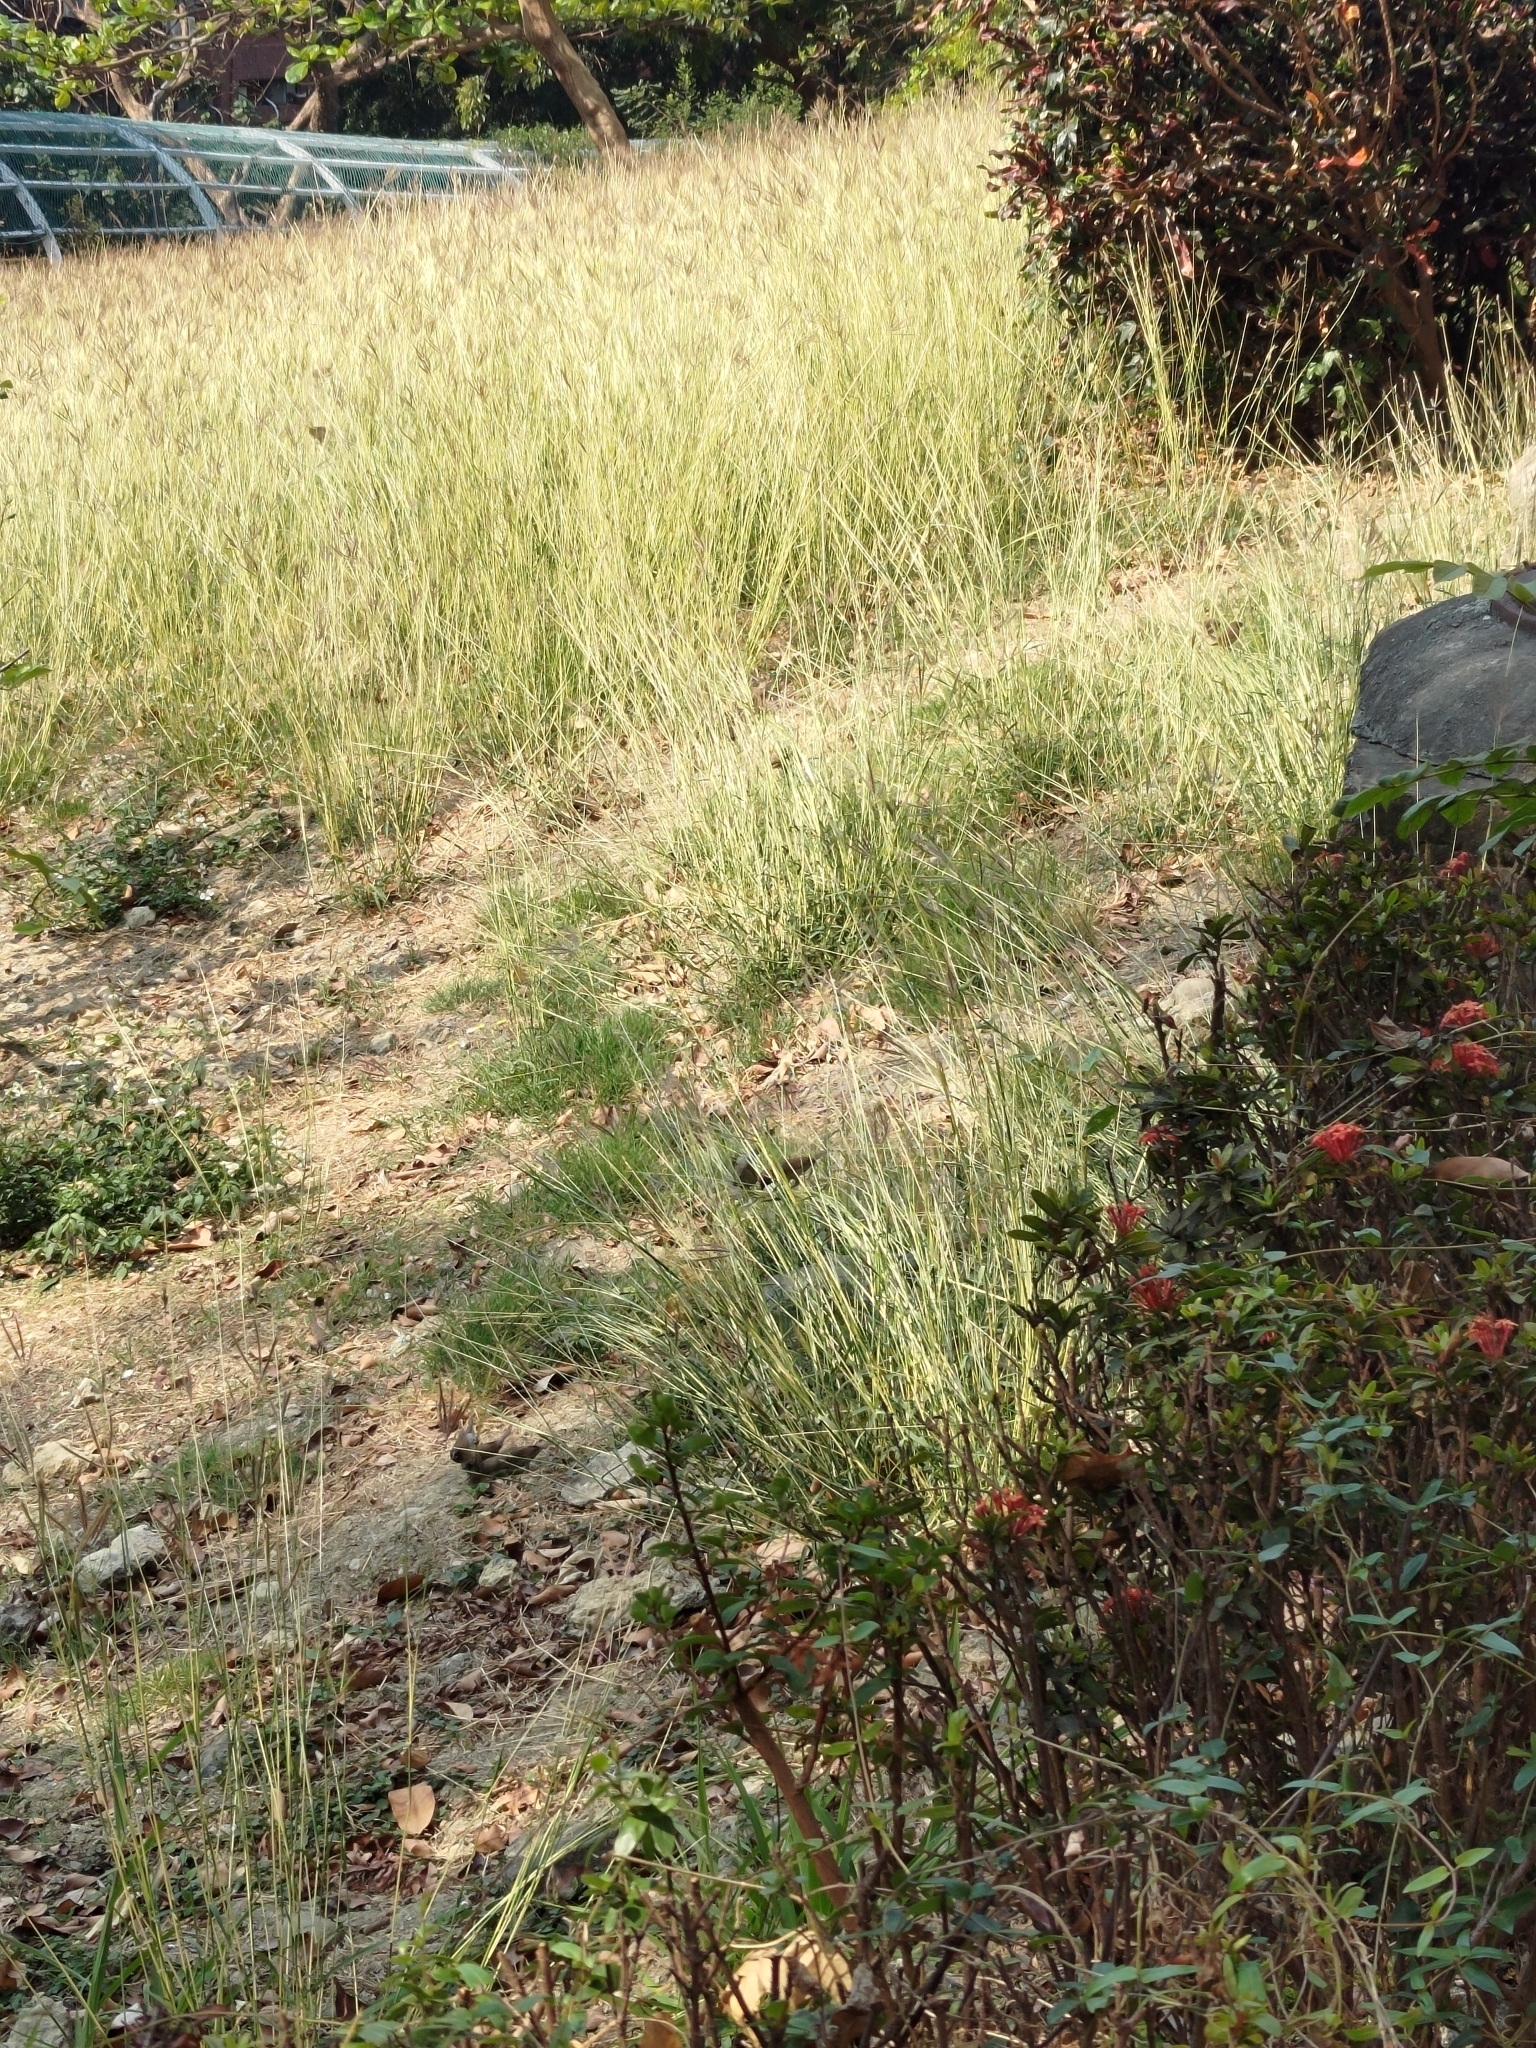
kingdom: Animalia
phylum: Chordata
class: Aves
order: Passeriformes
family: Estrildidae
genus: Lonchura
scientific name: Lonchura punctulata
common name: Scaly-breasted munia
